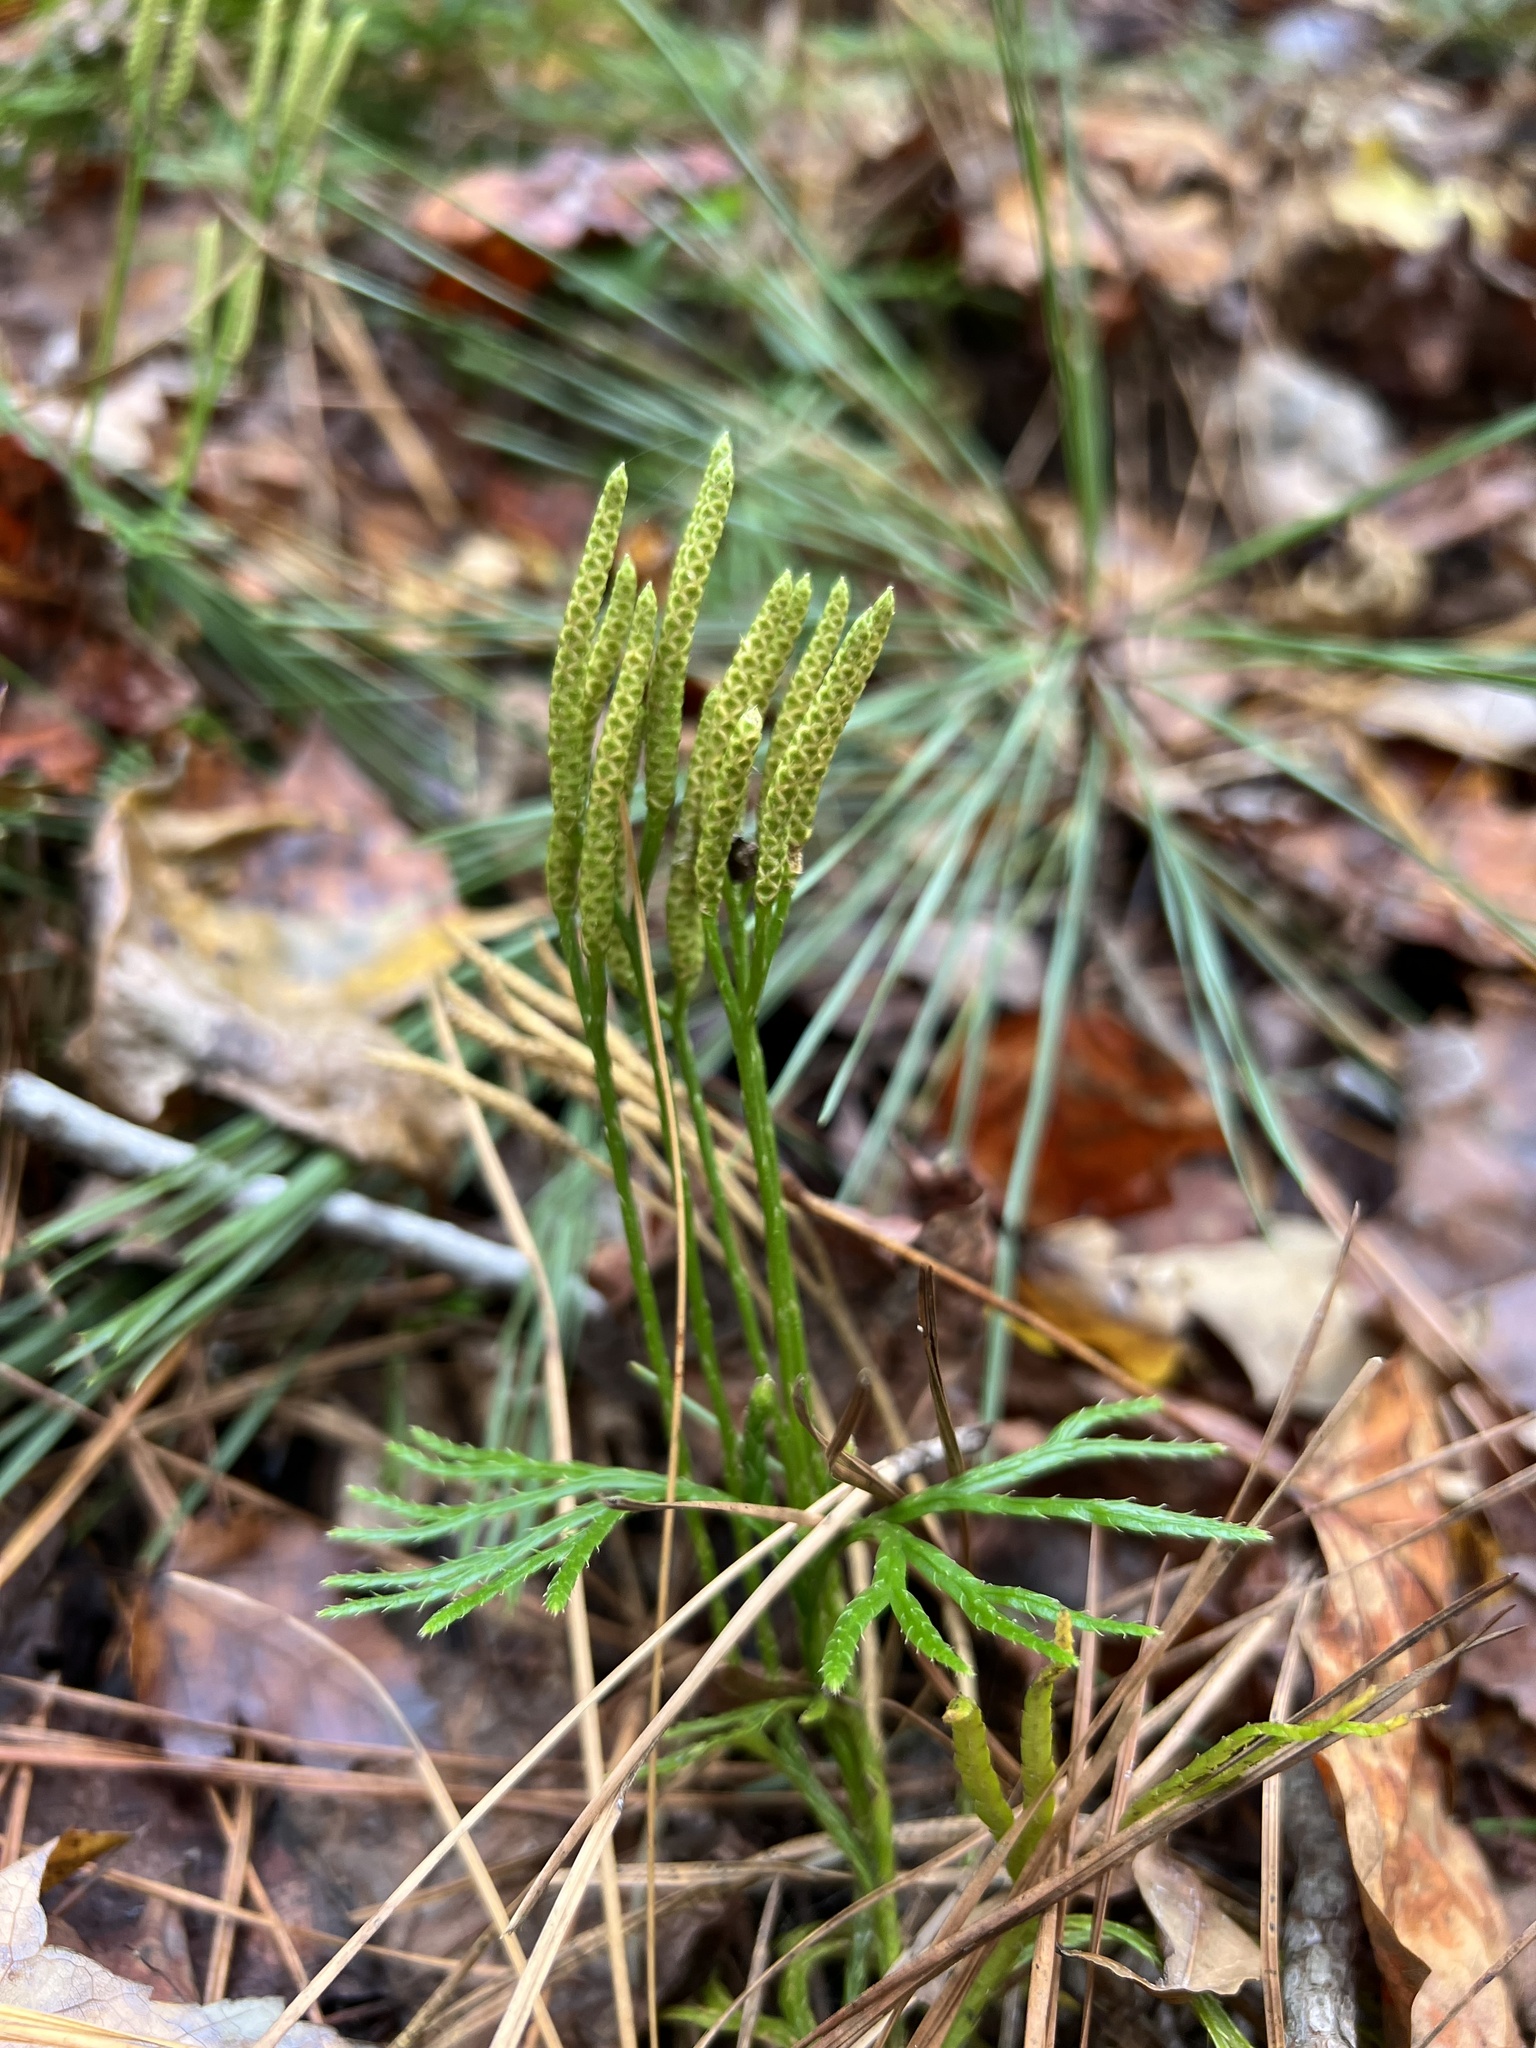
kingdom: Plantae
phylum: Tracheophyta
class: Lycopodiopsida
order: Lycopodiales
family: Lycopodiaceae
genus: Diphasiastrum
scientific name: Diphasiastrum digitatum
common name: Southern running-pine
